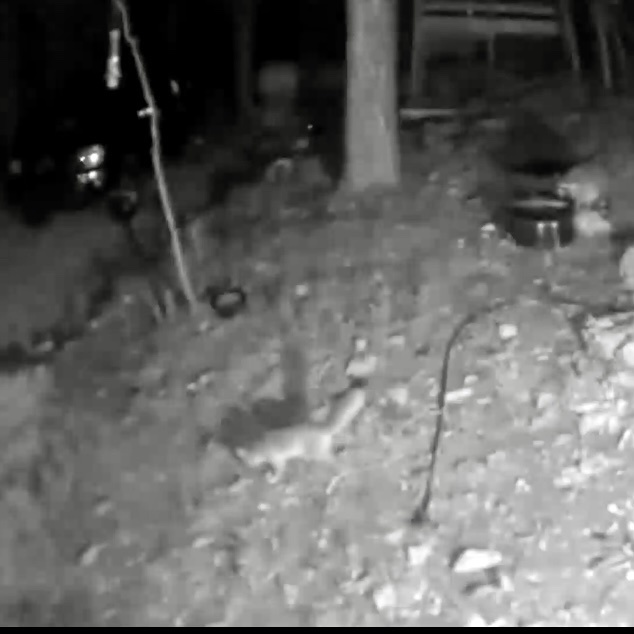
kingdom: Animalia
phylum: Chordata
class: Mammalia
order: Carnivora
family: Canidae
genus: Urocyon
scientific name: Urocyon cinereoargenteus
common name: Gray fox
